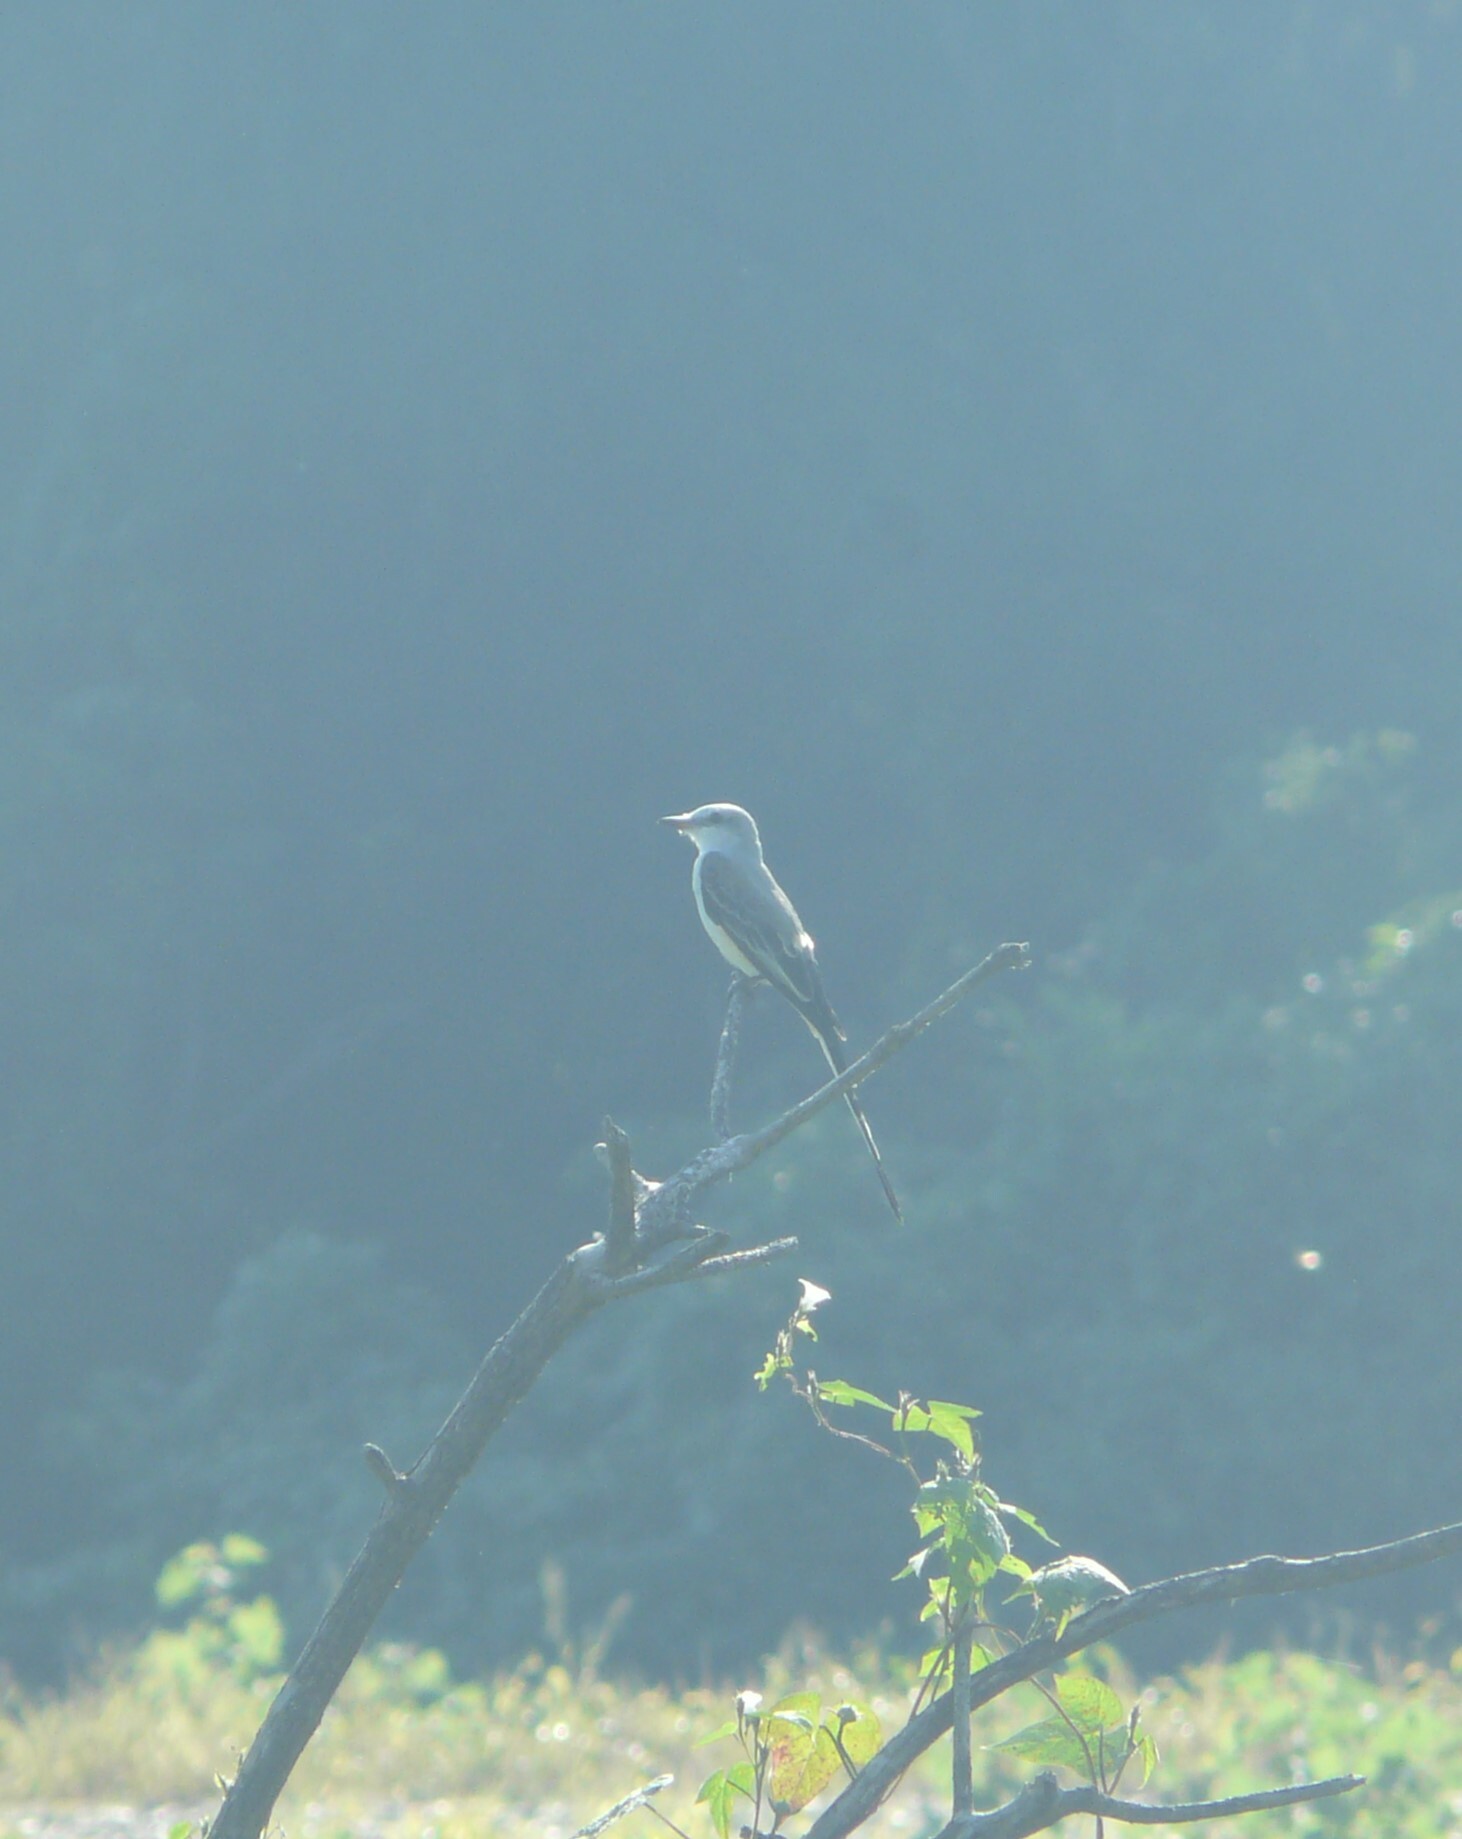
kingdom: Animalia
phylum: Chordata
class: Aves
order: Passeriformes
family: Tyrannidae
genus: Tyrannus
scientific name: Tyrannus forficatus
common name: Scissor-tailed flycatcher
